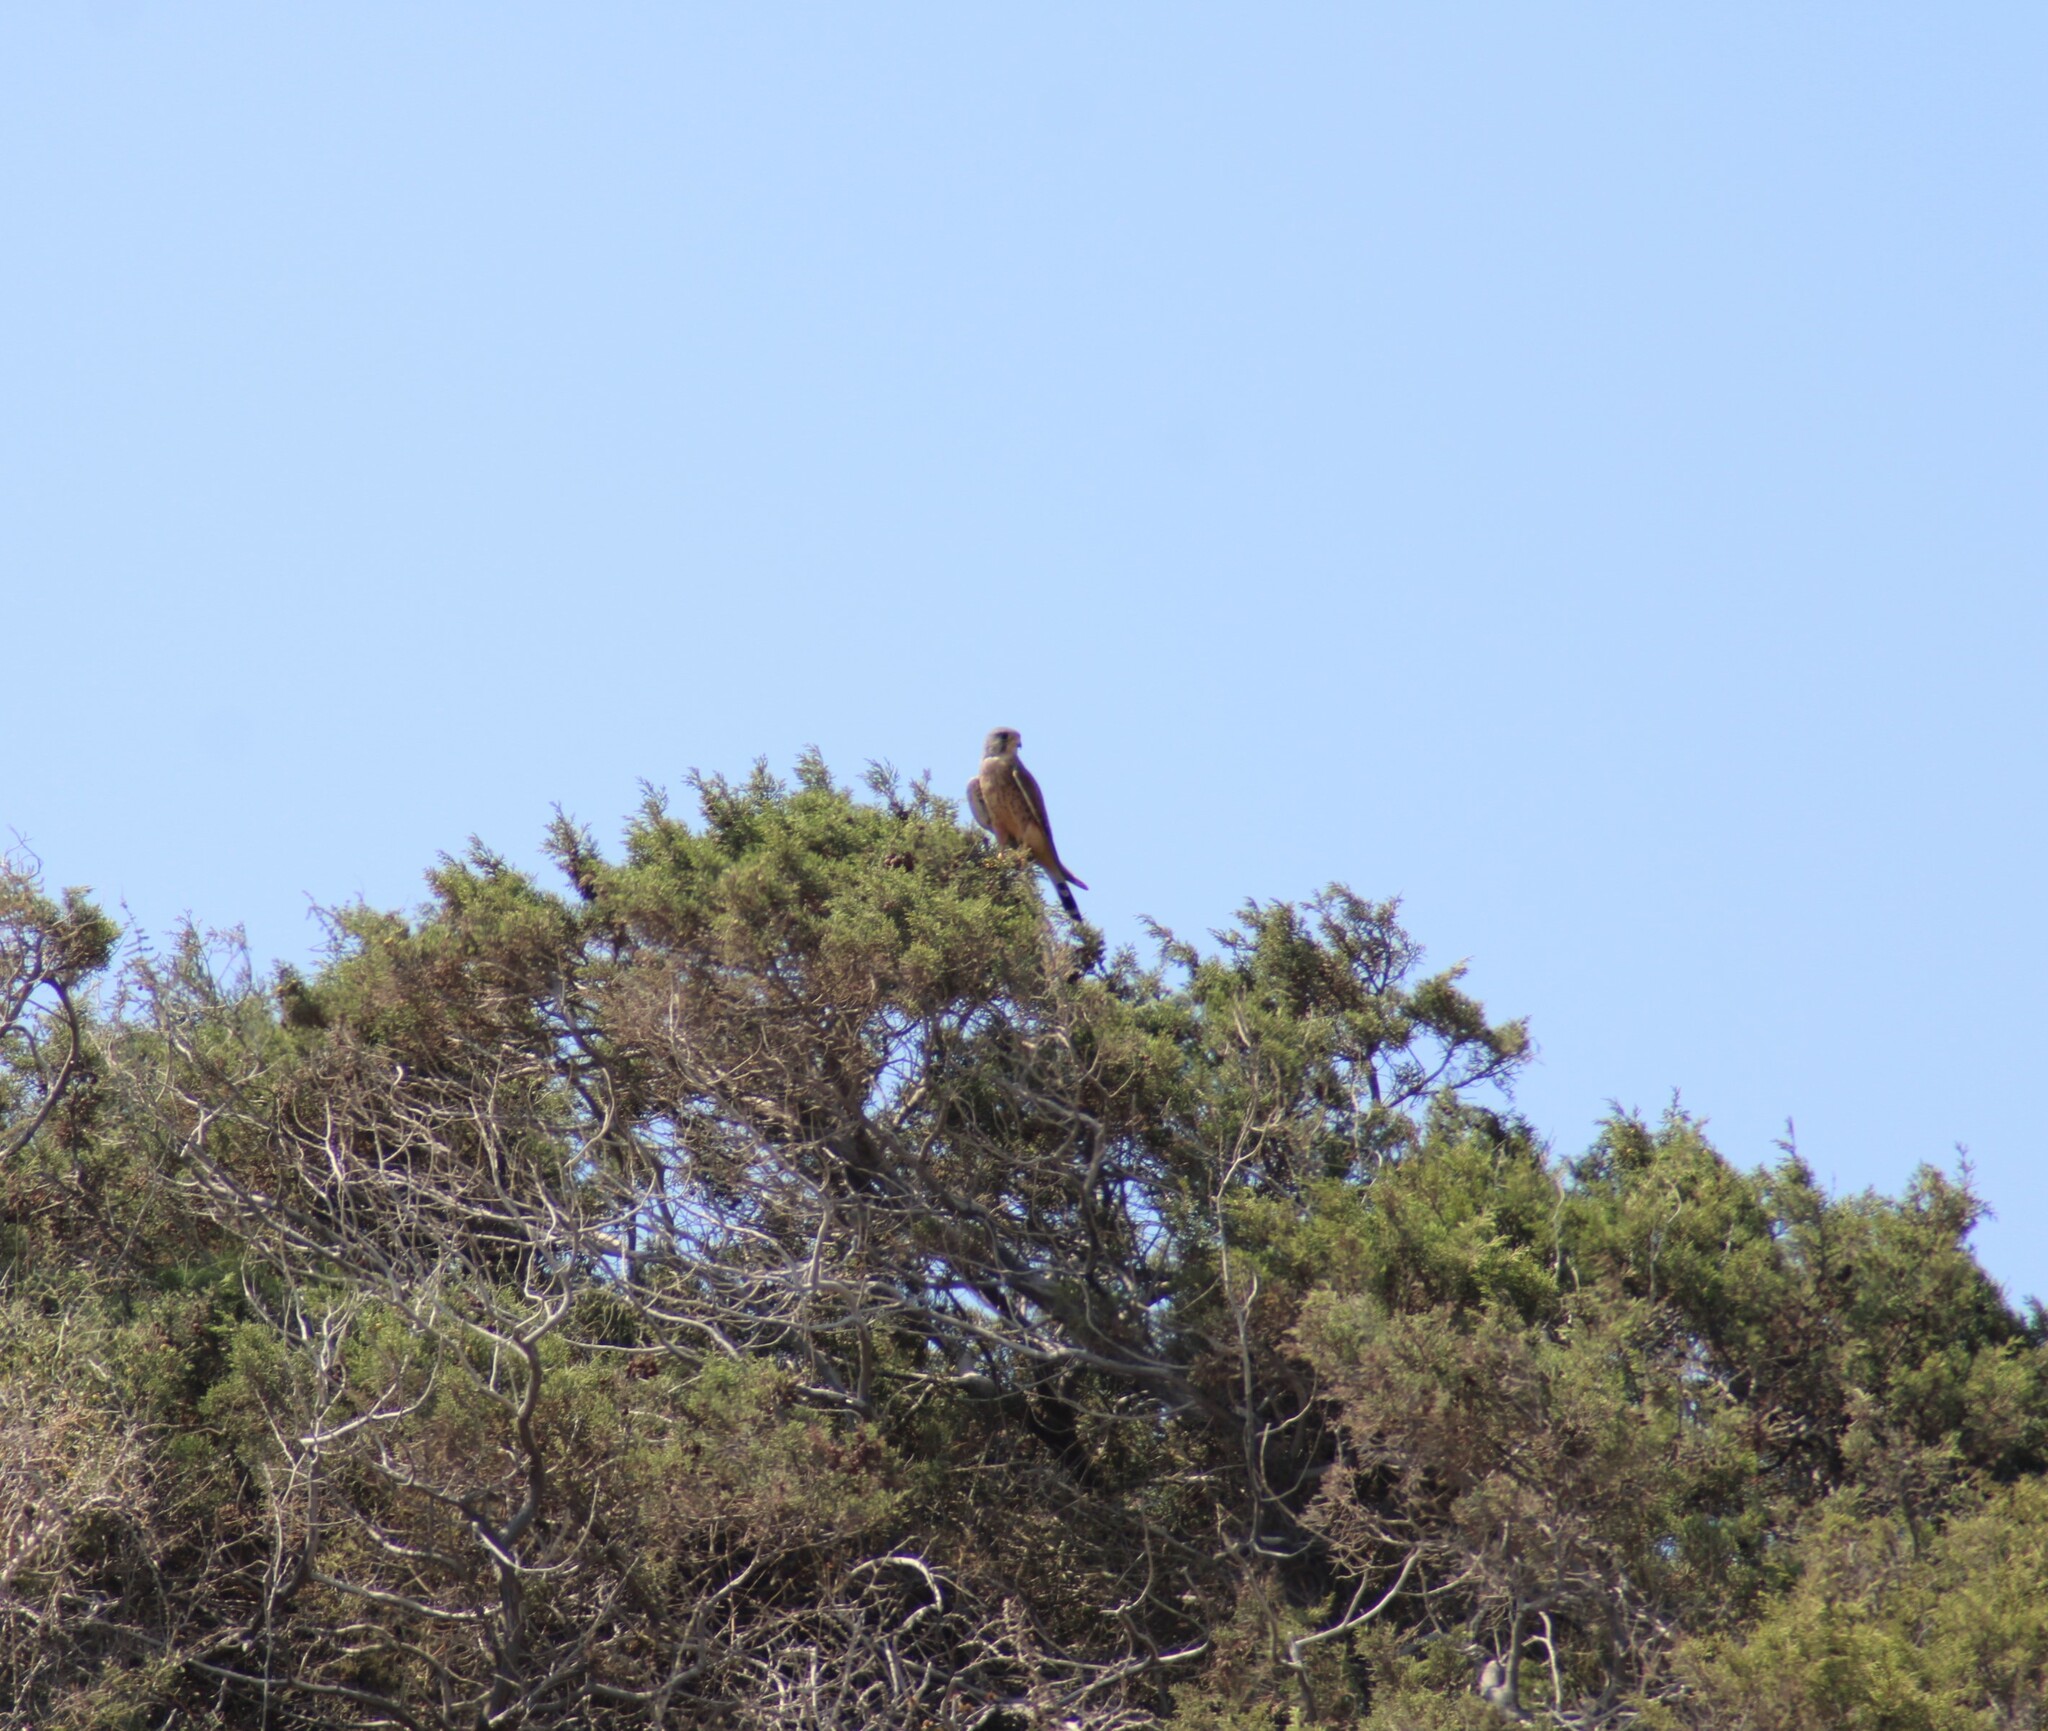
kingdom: Animalia
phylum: Chordata
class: Aves
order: Falconiformes
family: Falconidae
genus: Falco
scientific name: Falco tinnunculus
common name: Common kestrel
